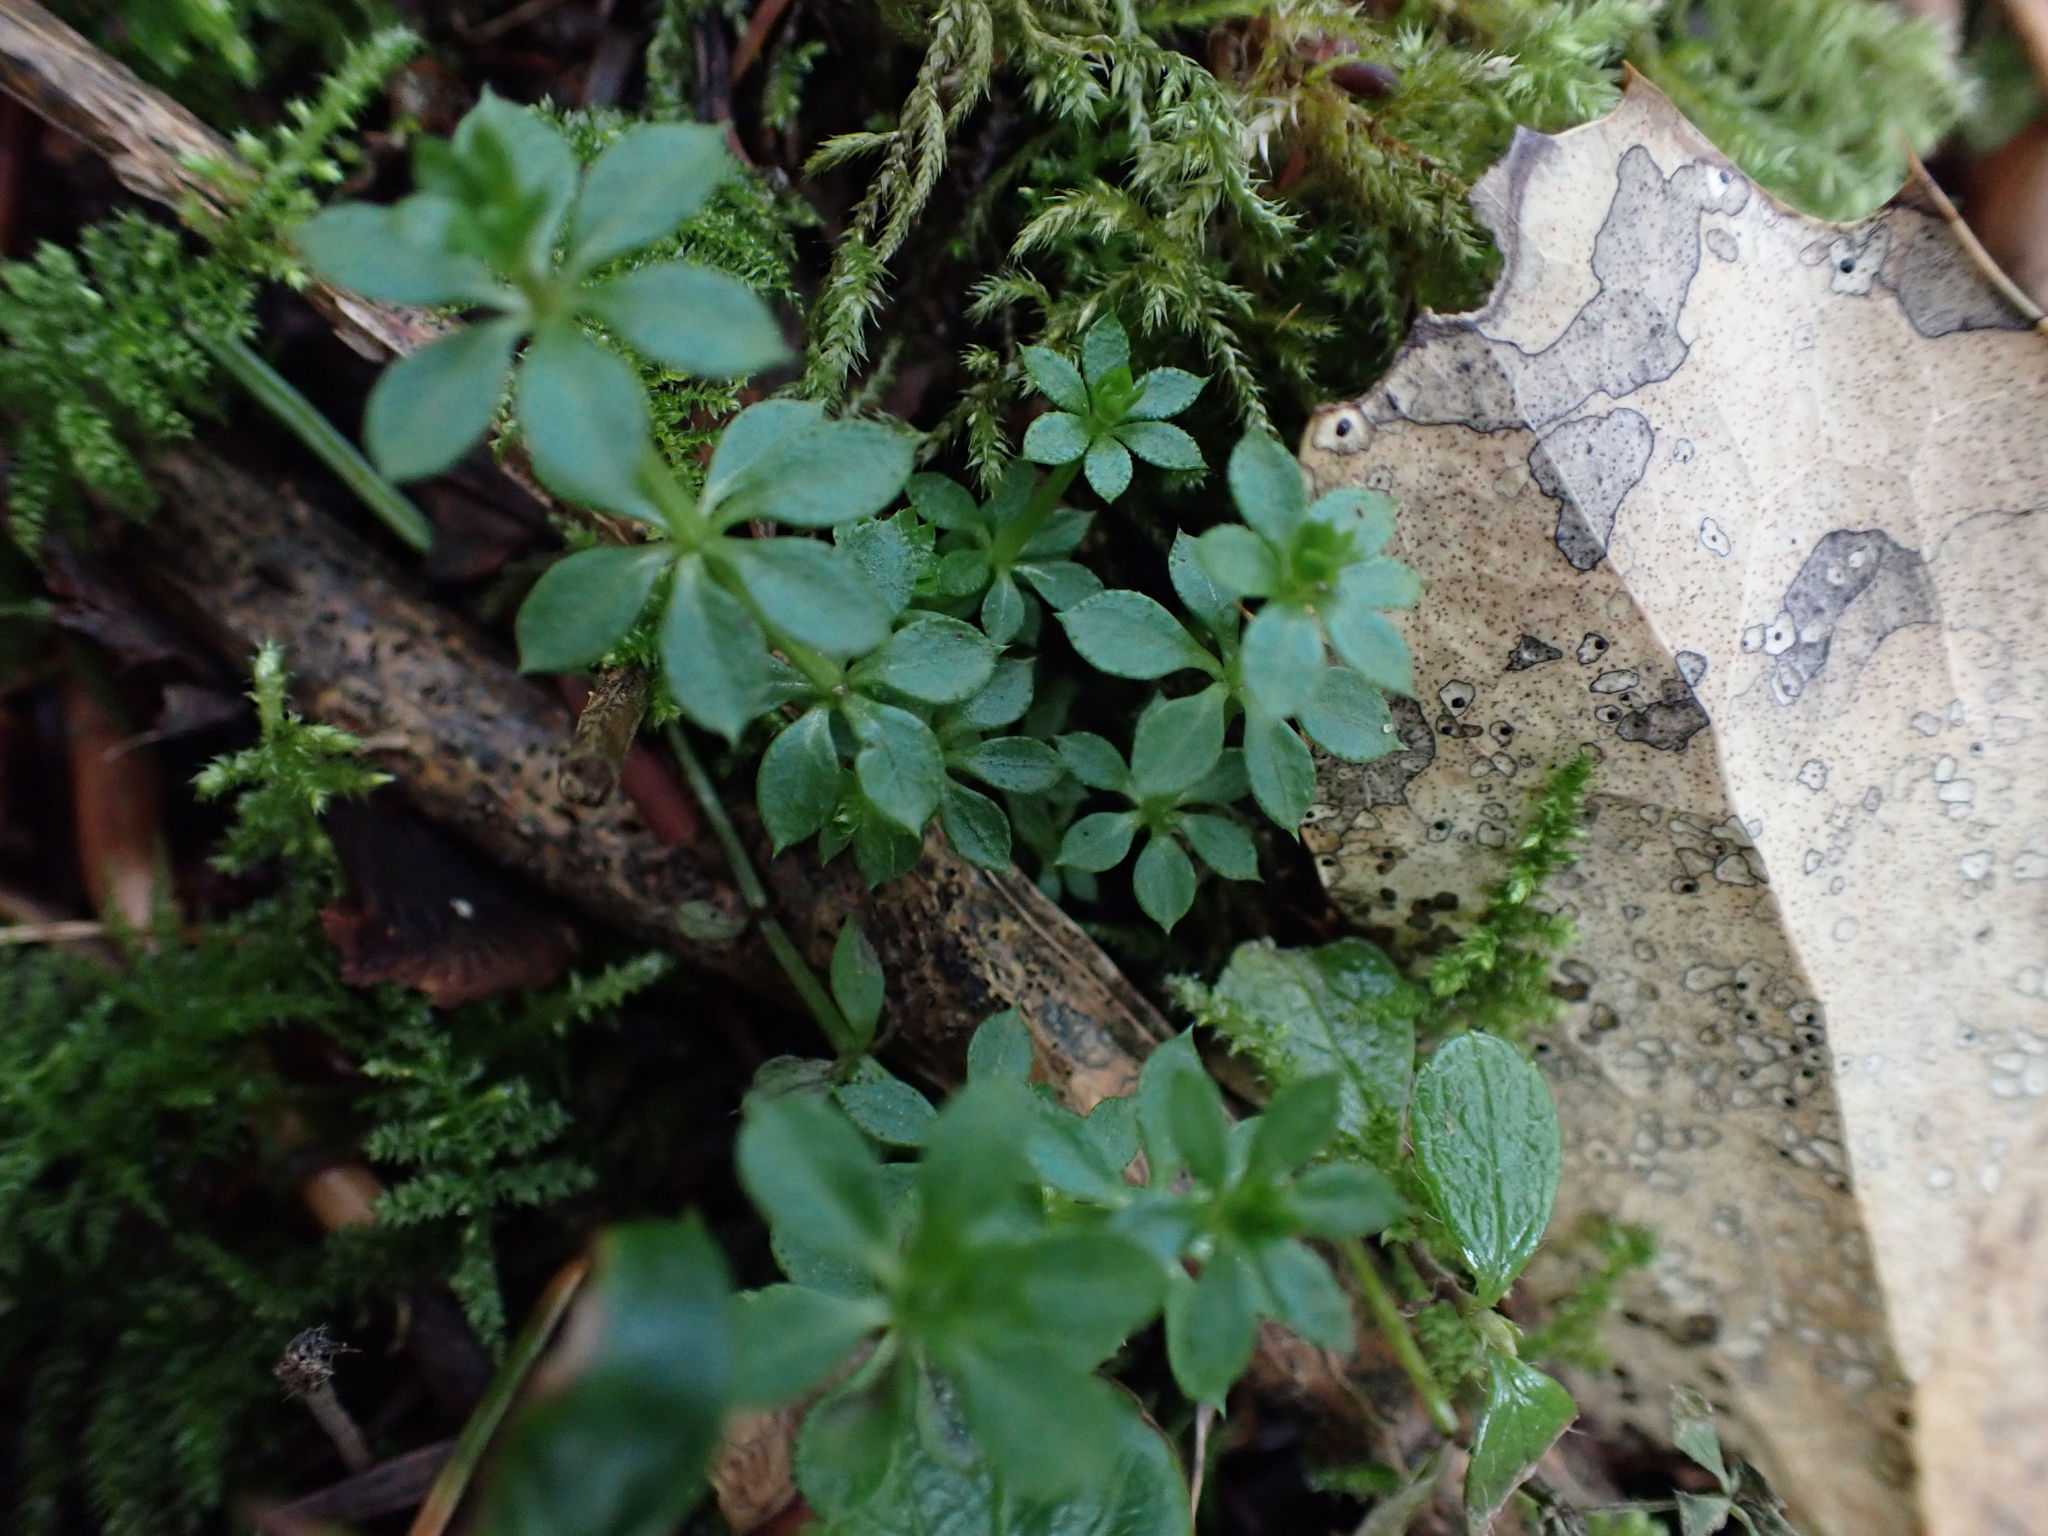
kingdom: Plantae
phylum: Tracheophyta
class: Magnoliopsida
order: Gentianales
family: Rubiaceae
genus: Galium
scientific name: Galium aparine
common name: Cleavers
